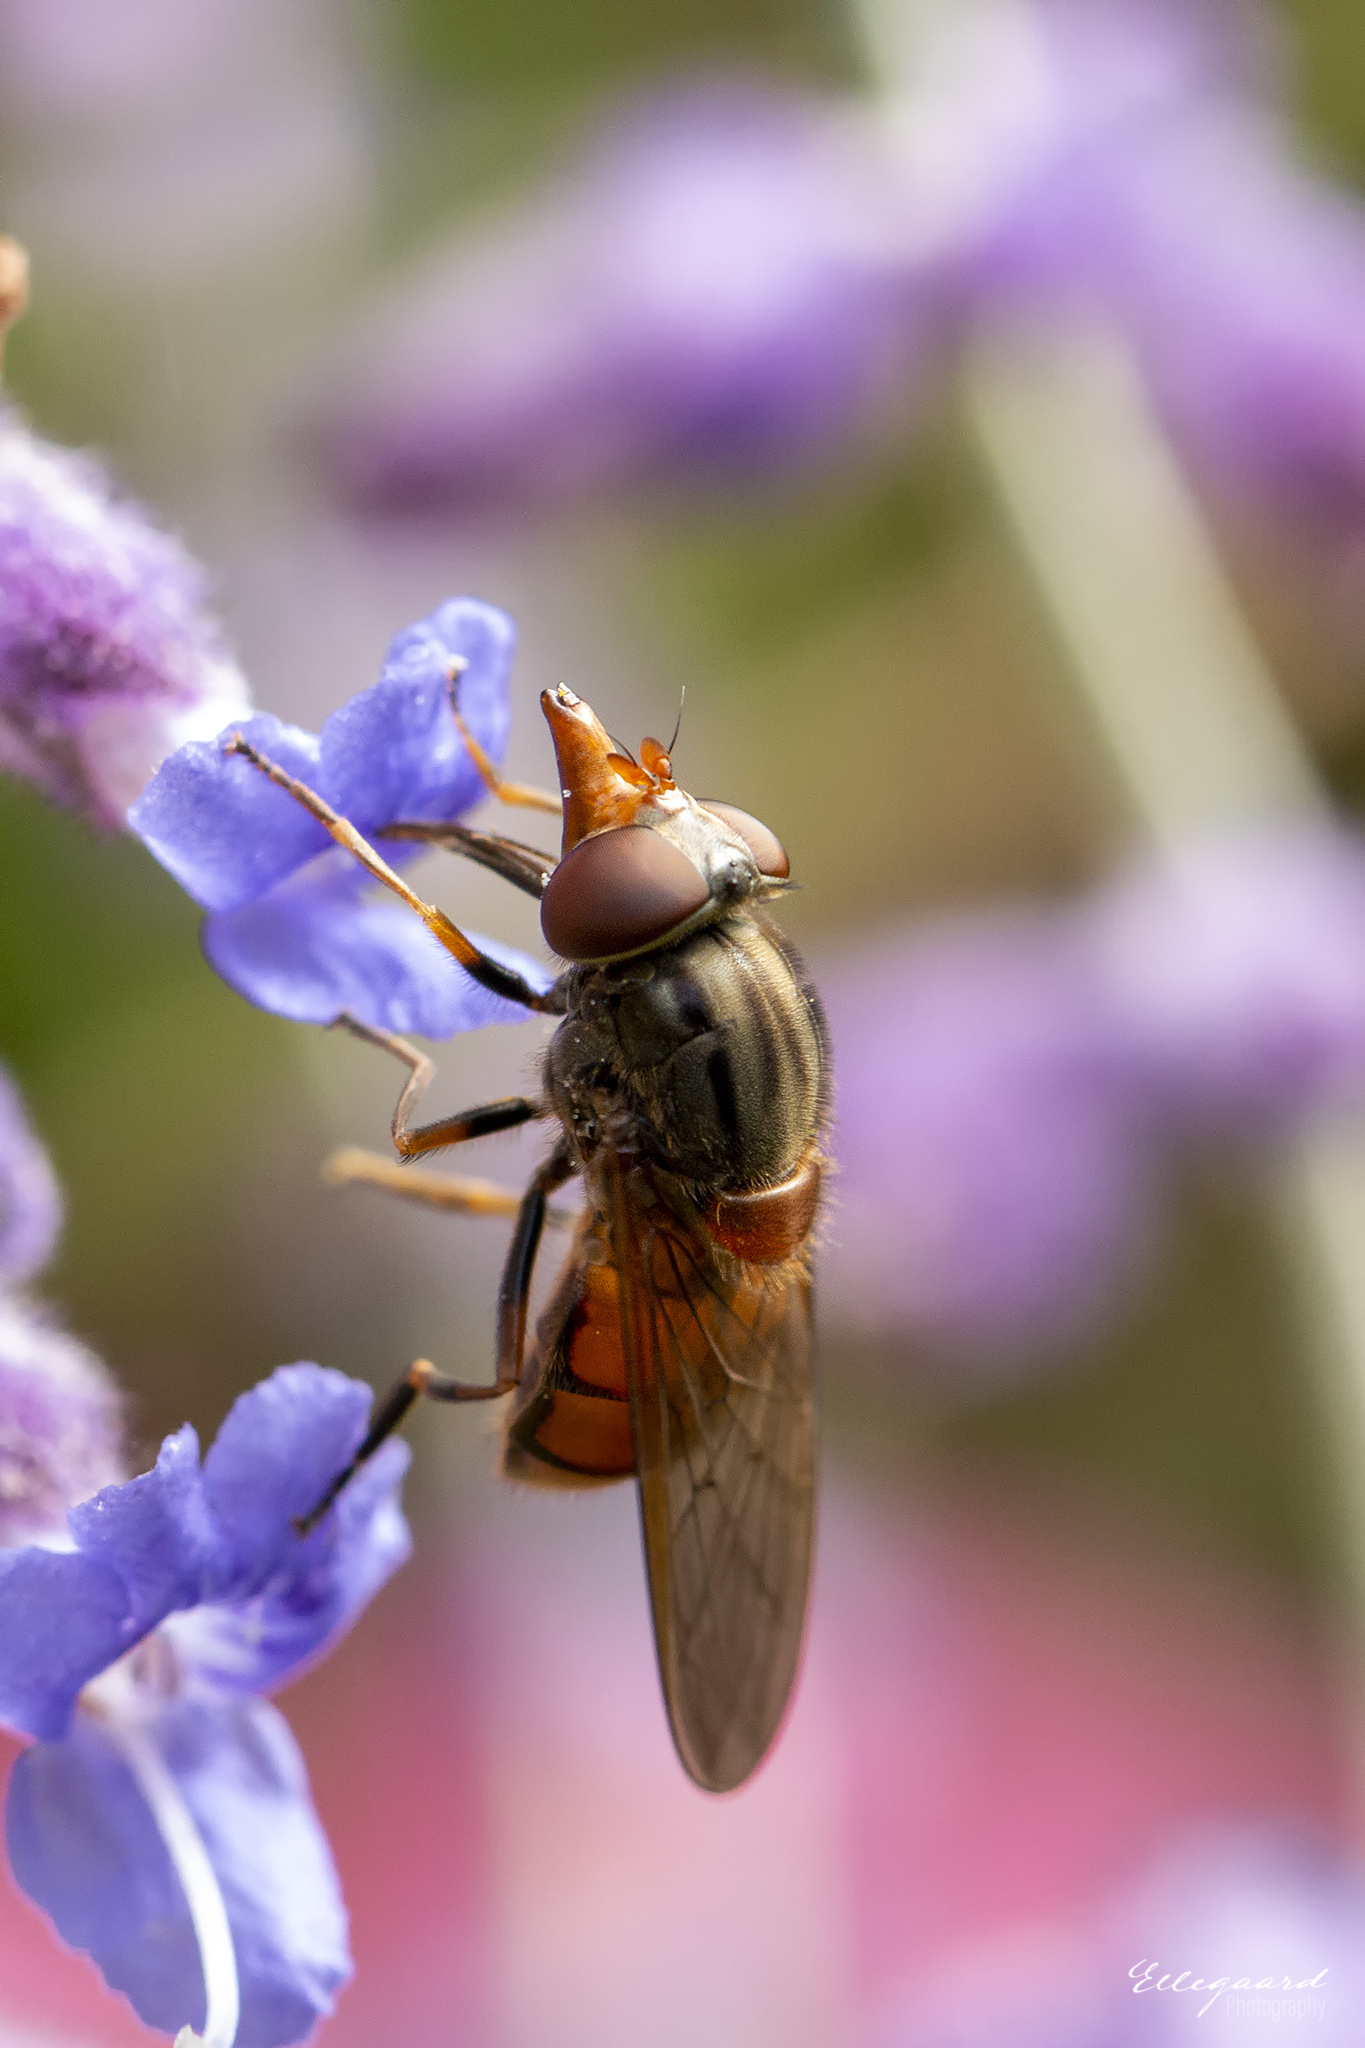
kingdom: Animalia
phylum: Arthropoda
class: Insecta
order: Diptera
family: Syrphidae
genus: Rhingia
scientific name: Rhingia campestris
